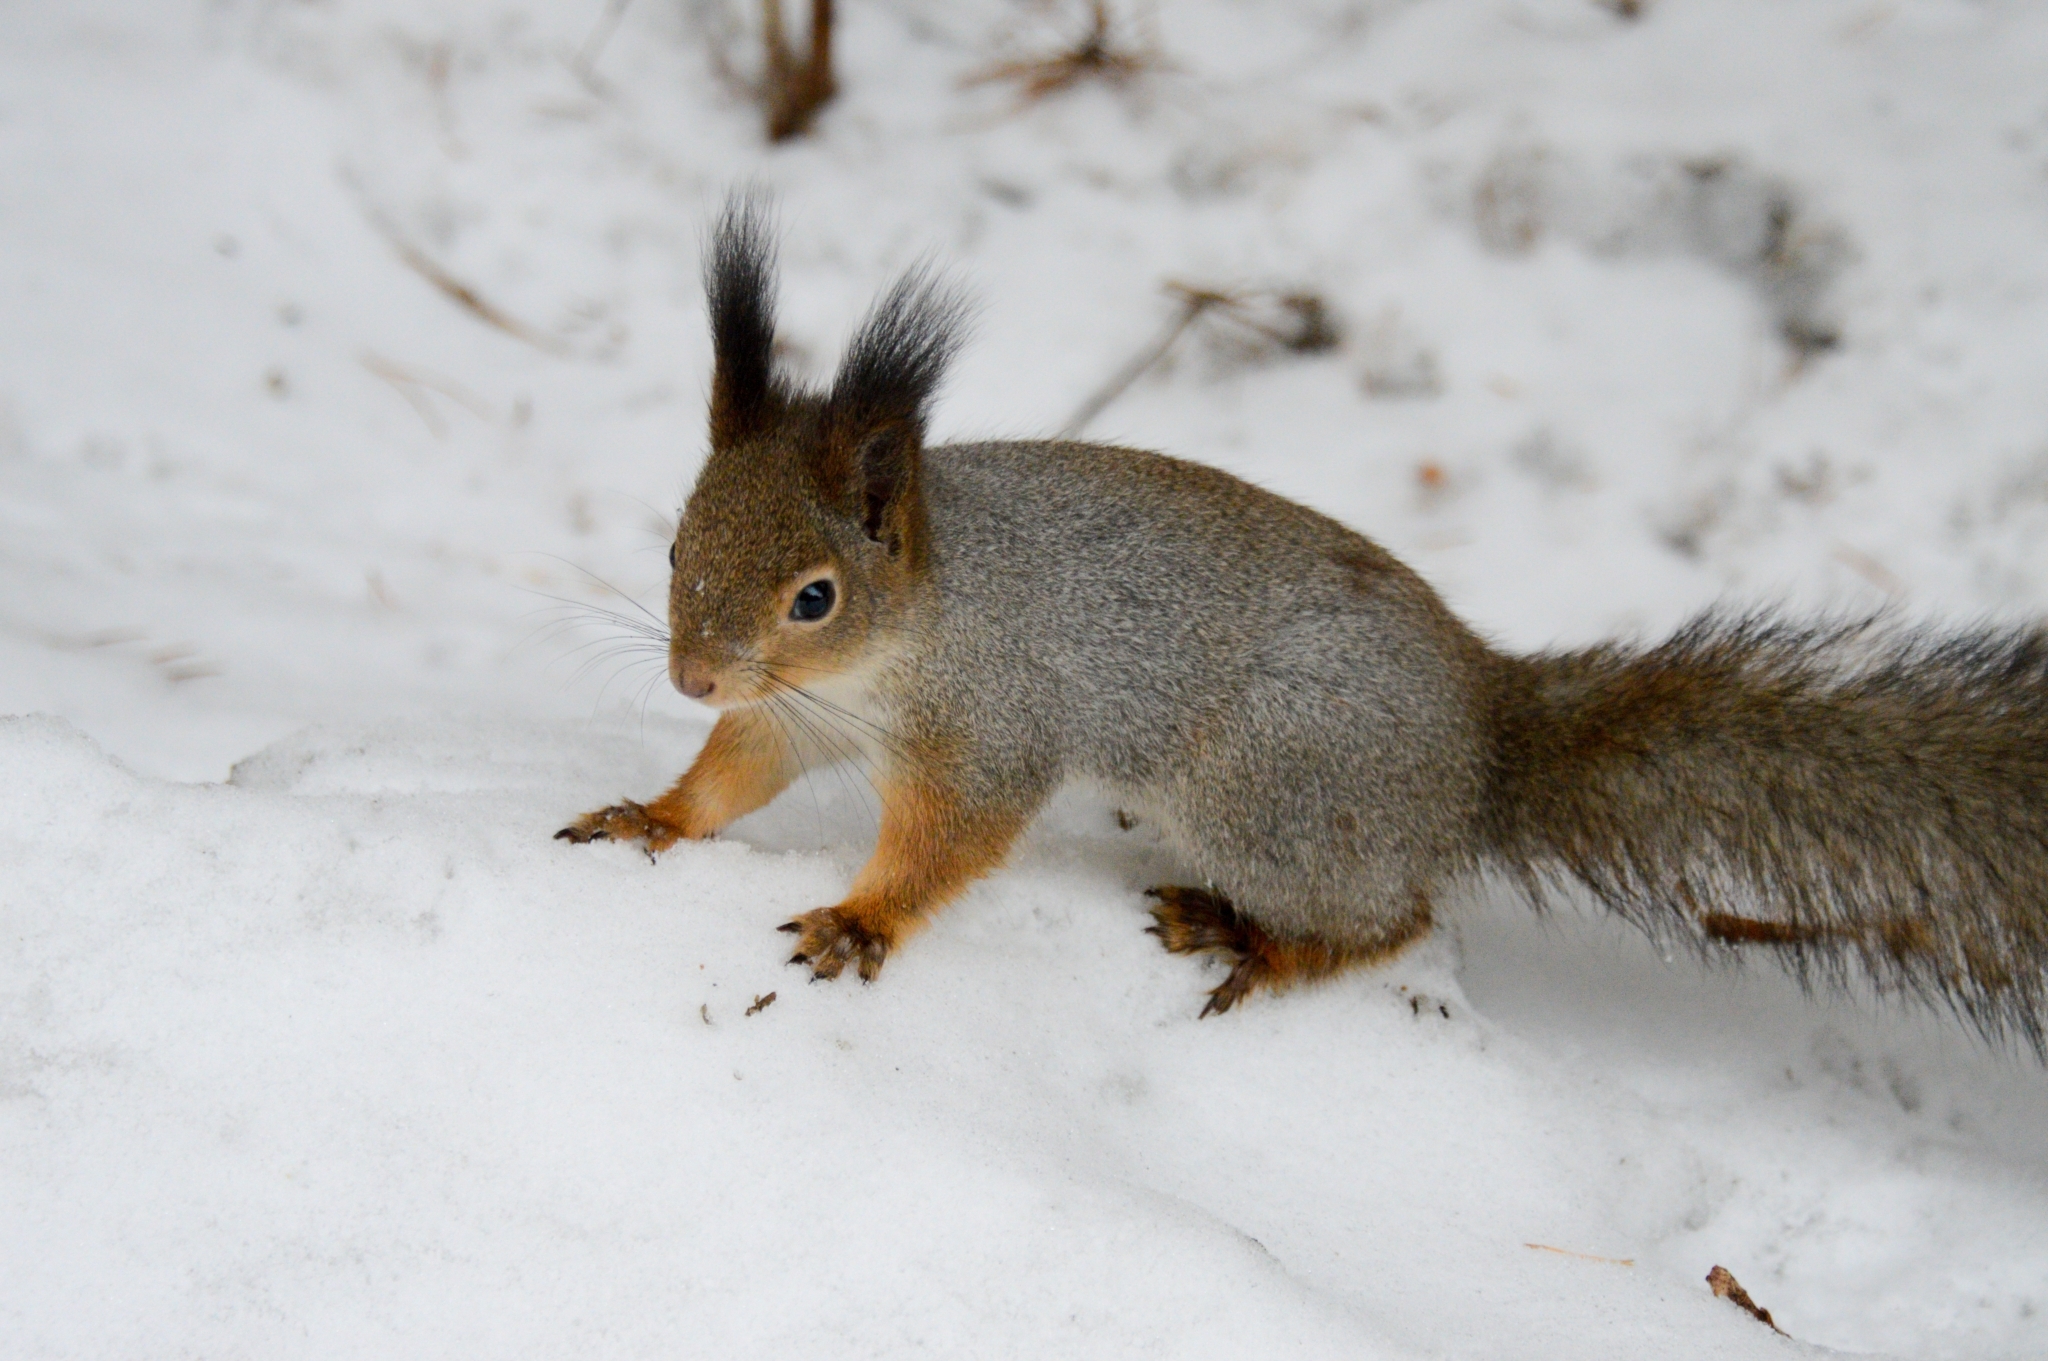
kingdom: Animalia
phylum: Chordata
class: Mammalia
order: Rodentia
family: Sciuridae
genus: Sciurus
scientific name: Sciurus vulgaris
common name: Eurasian red squirrel
